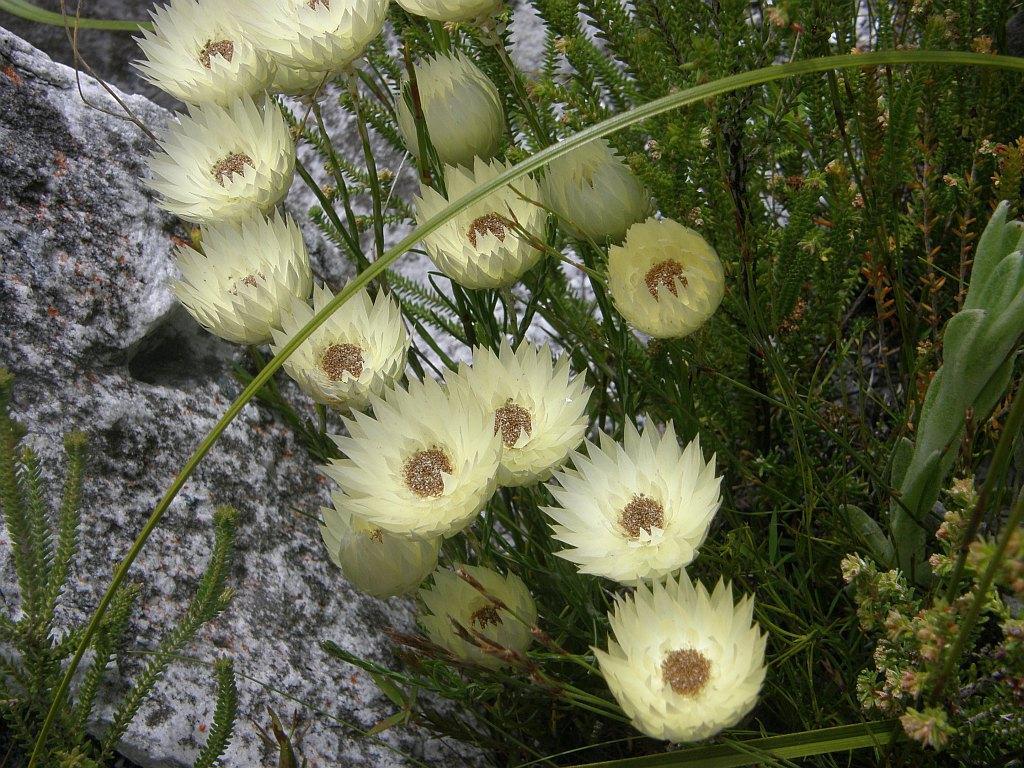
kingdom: Plantae
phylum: Tracheophyta
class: Magnoliopsida
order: Asterales
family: Asteraceae
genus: Edmondia
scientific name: Edmondia sesamoides
